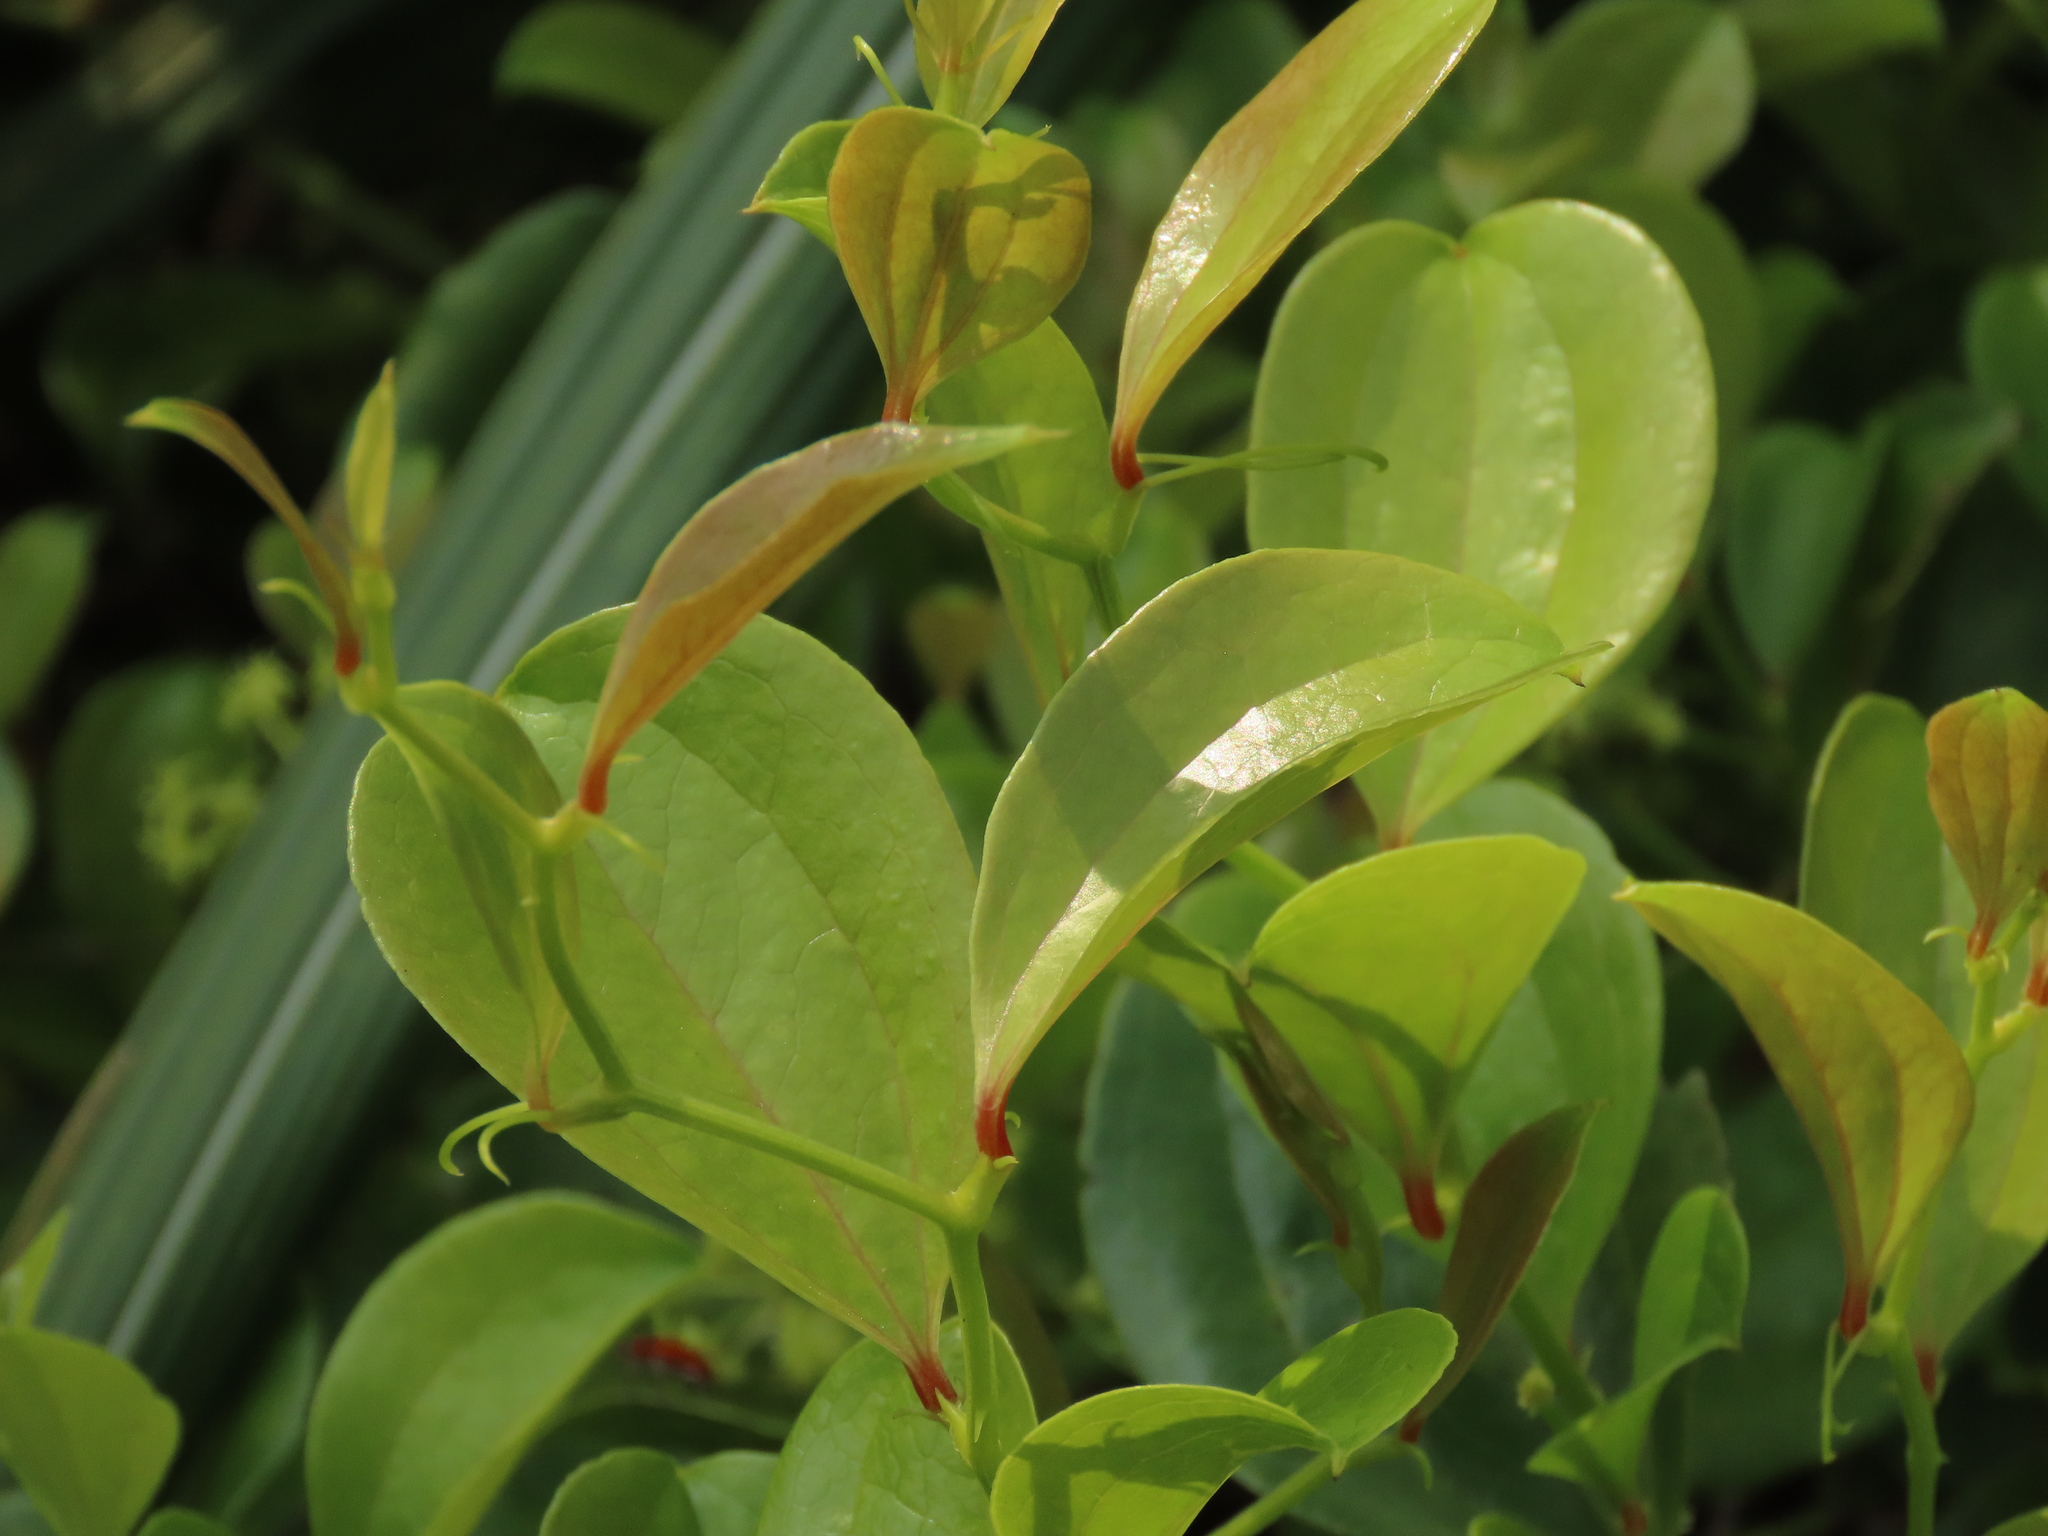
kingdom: Plantae
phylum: Tracheophyta
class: Liliopsida
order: Liliales
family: Smilacaceae
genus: Smilax
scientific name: Smilax china
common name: Chinaroot
